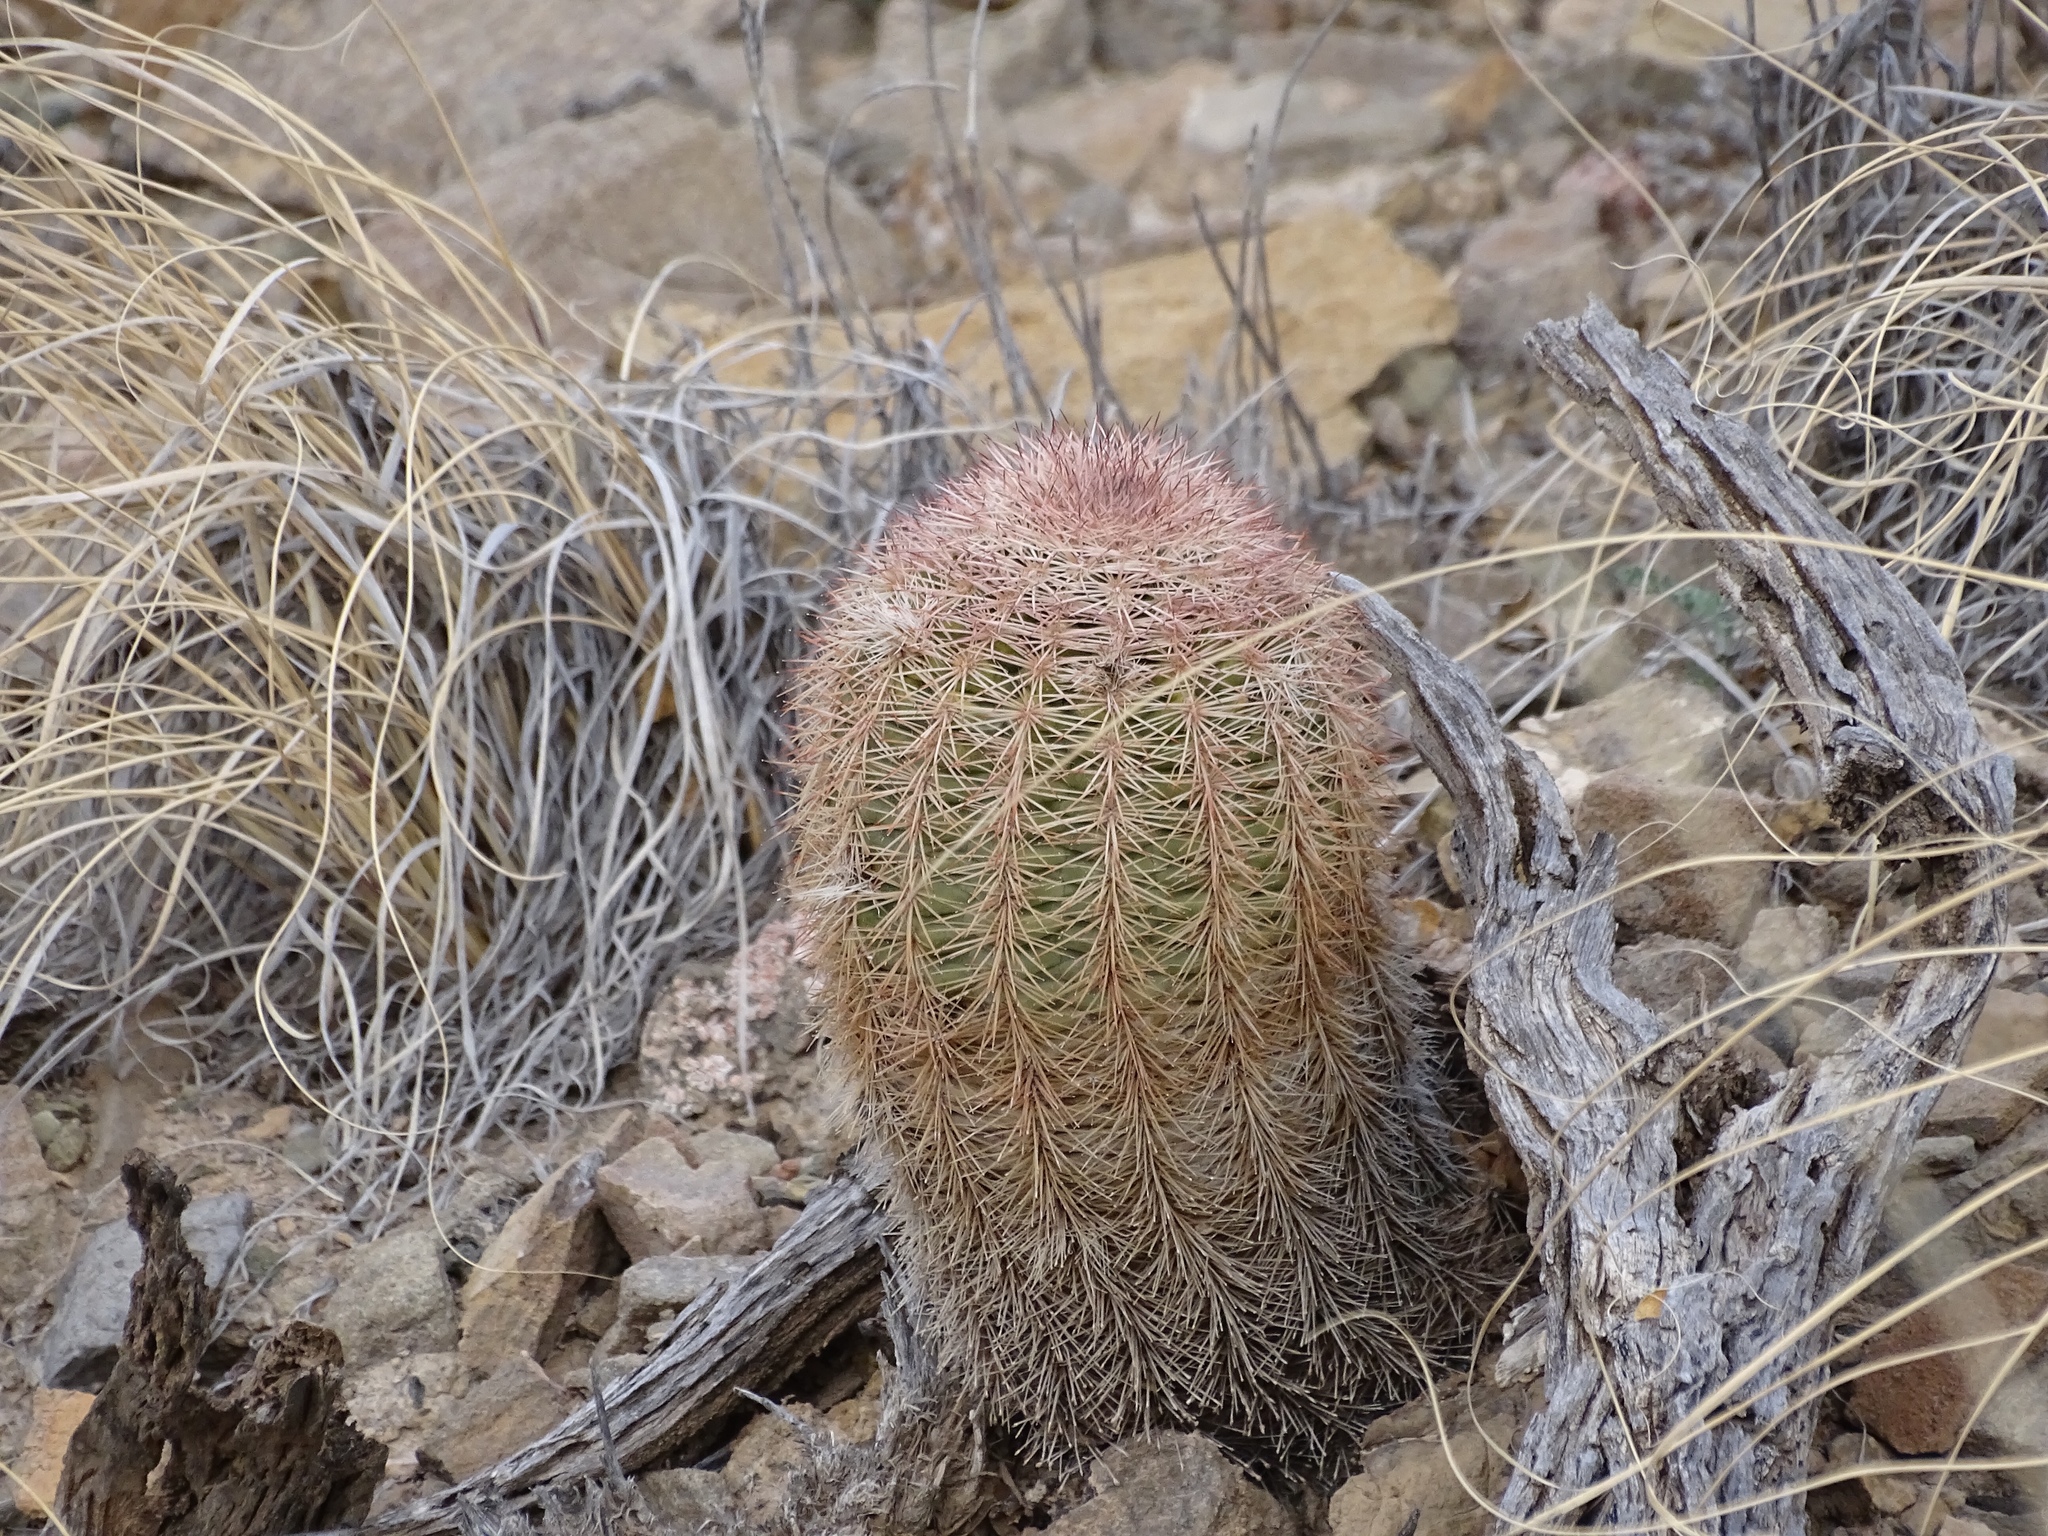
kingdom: Plantae
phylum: Tracheophyta
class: Magnoliopsida
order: Caryophyllales
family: Cactaceae
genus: Echinocereus
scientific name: Echinocereus dasyacanthus
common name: Spiny hedgehog cactus
